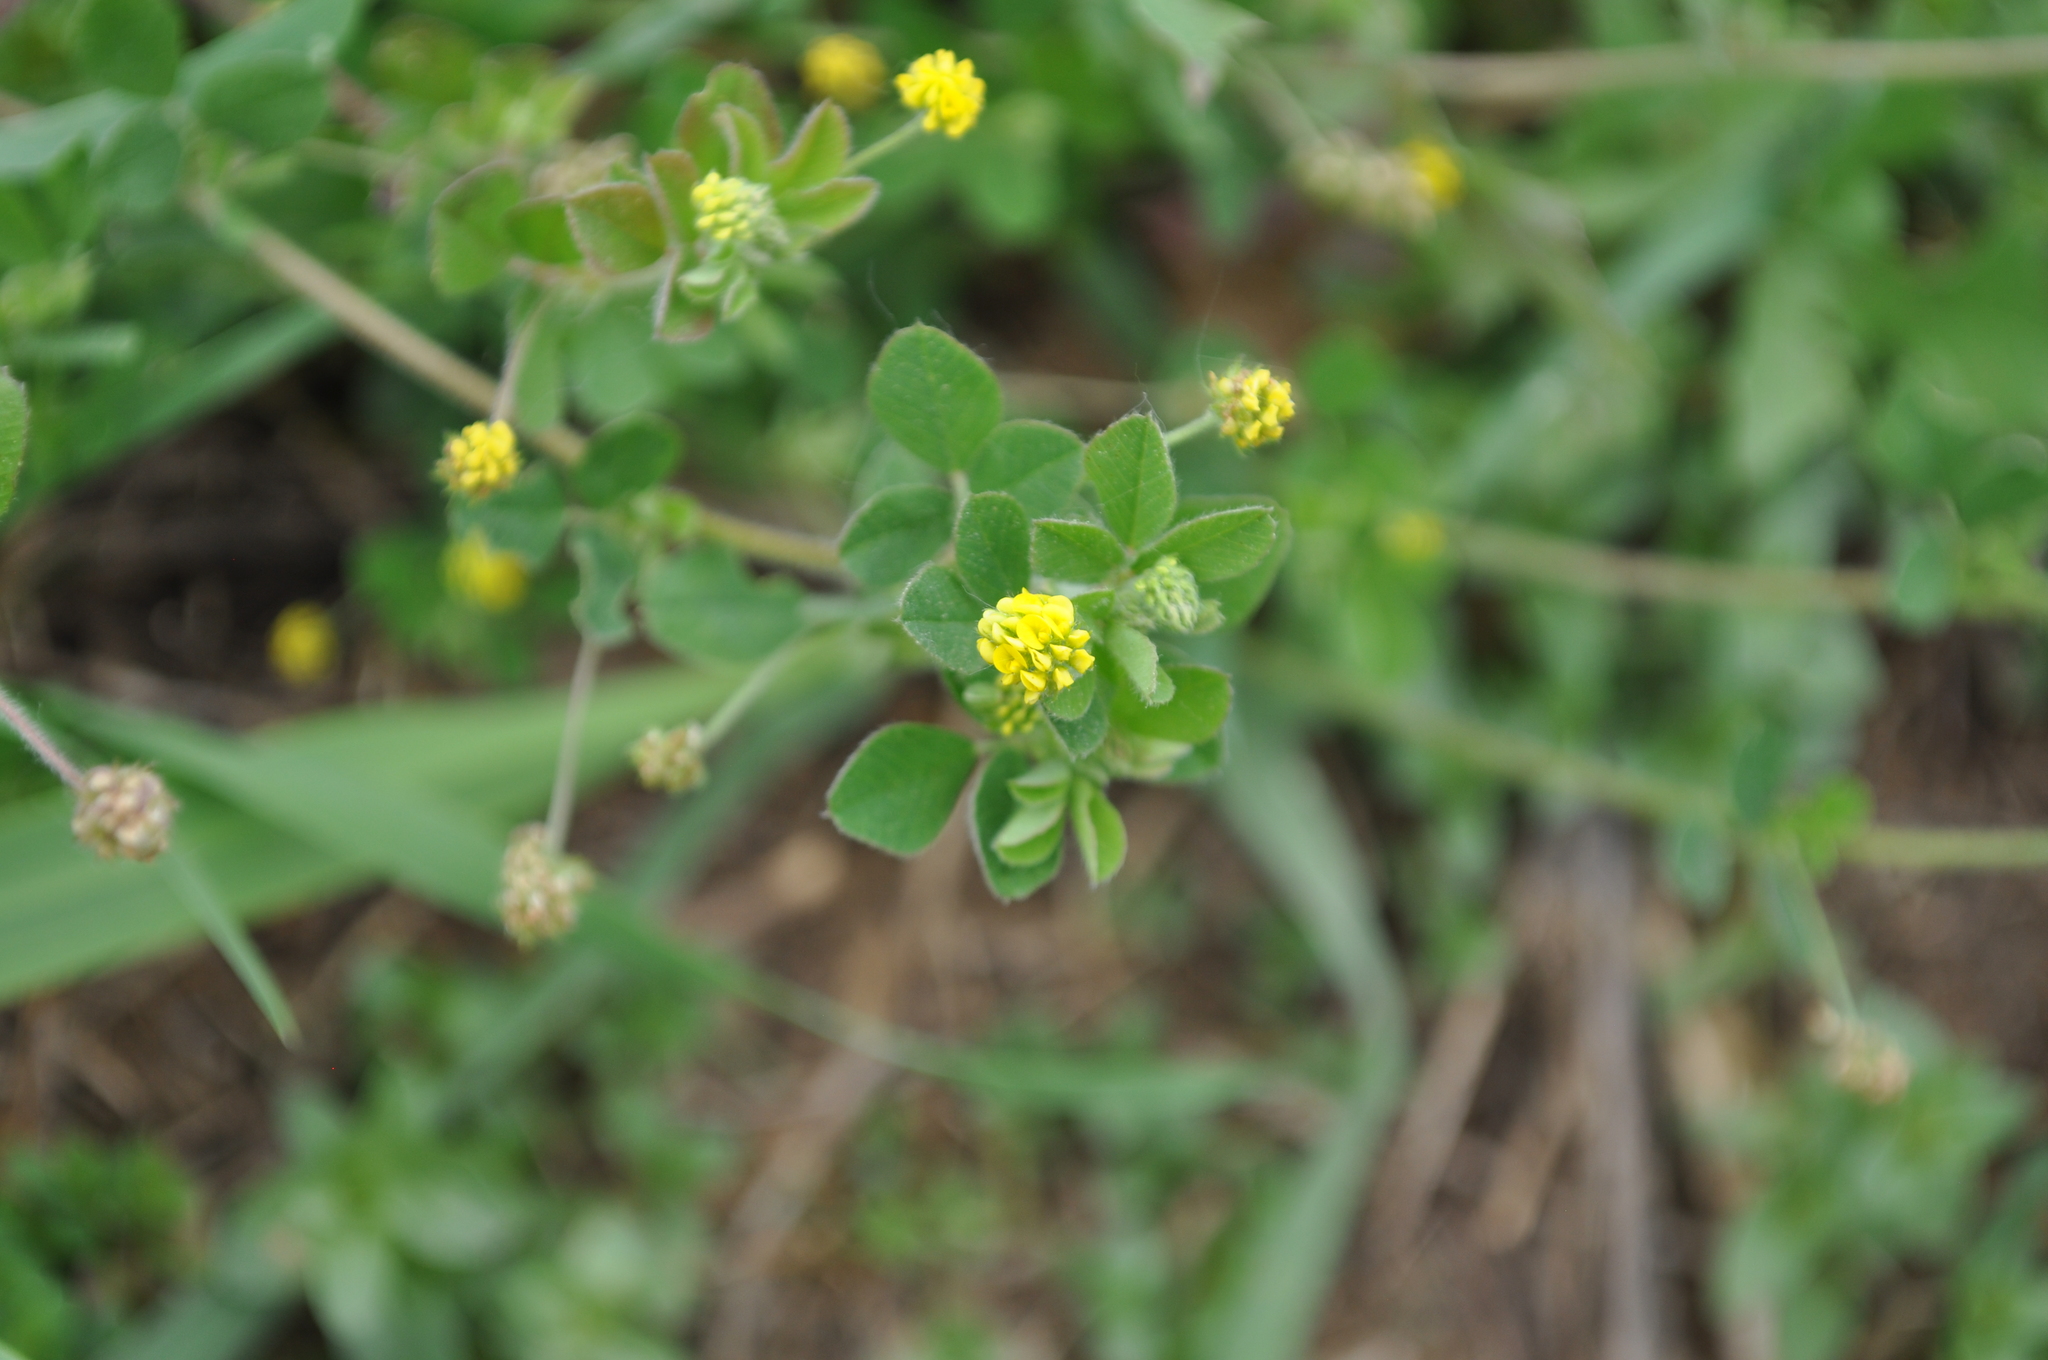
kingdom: Plantae
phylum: Tracheophyta
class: Magnoliopsida
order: Fabales
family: Fabaceae
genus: Medicago
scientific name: Medicago lupulina
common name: Black medick
